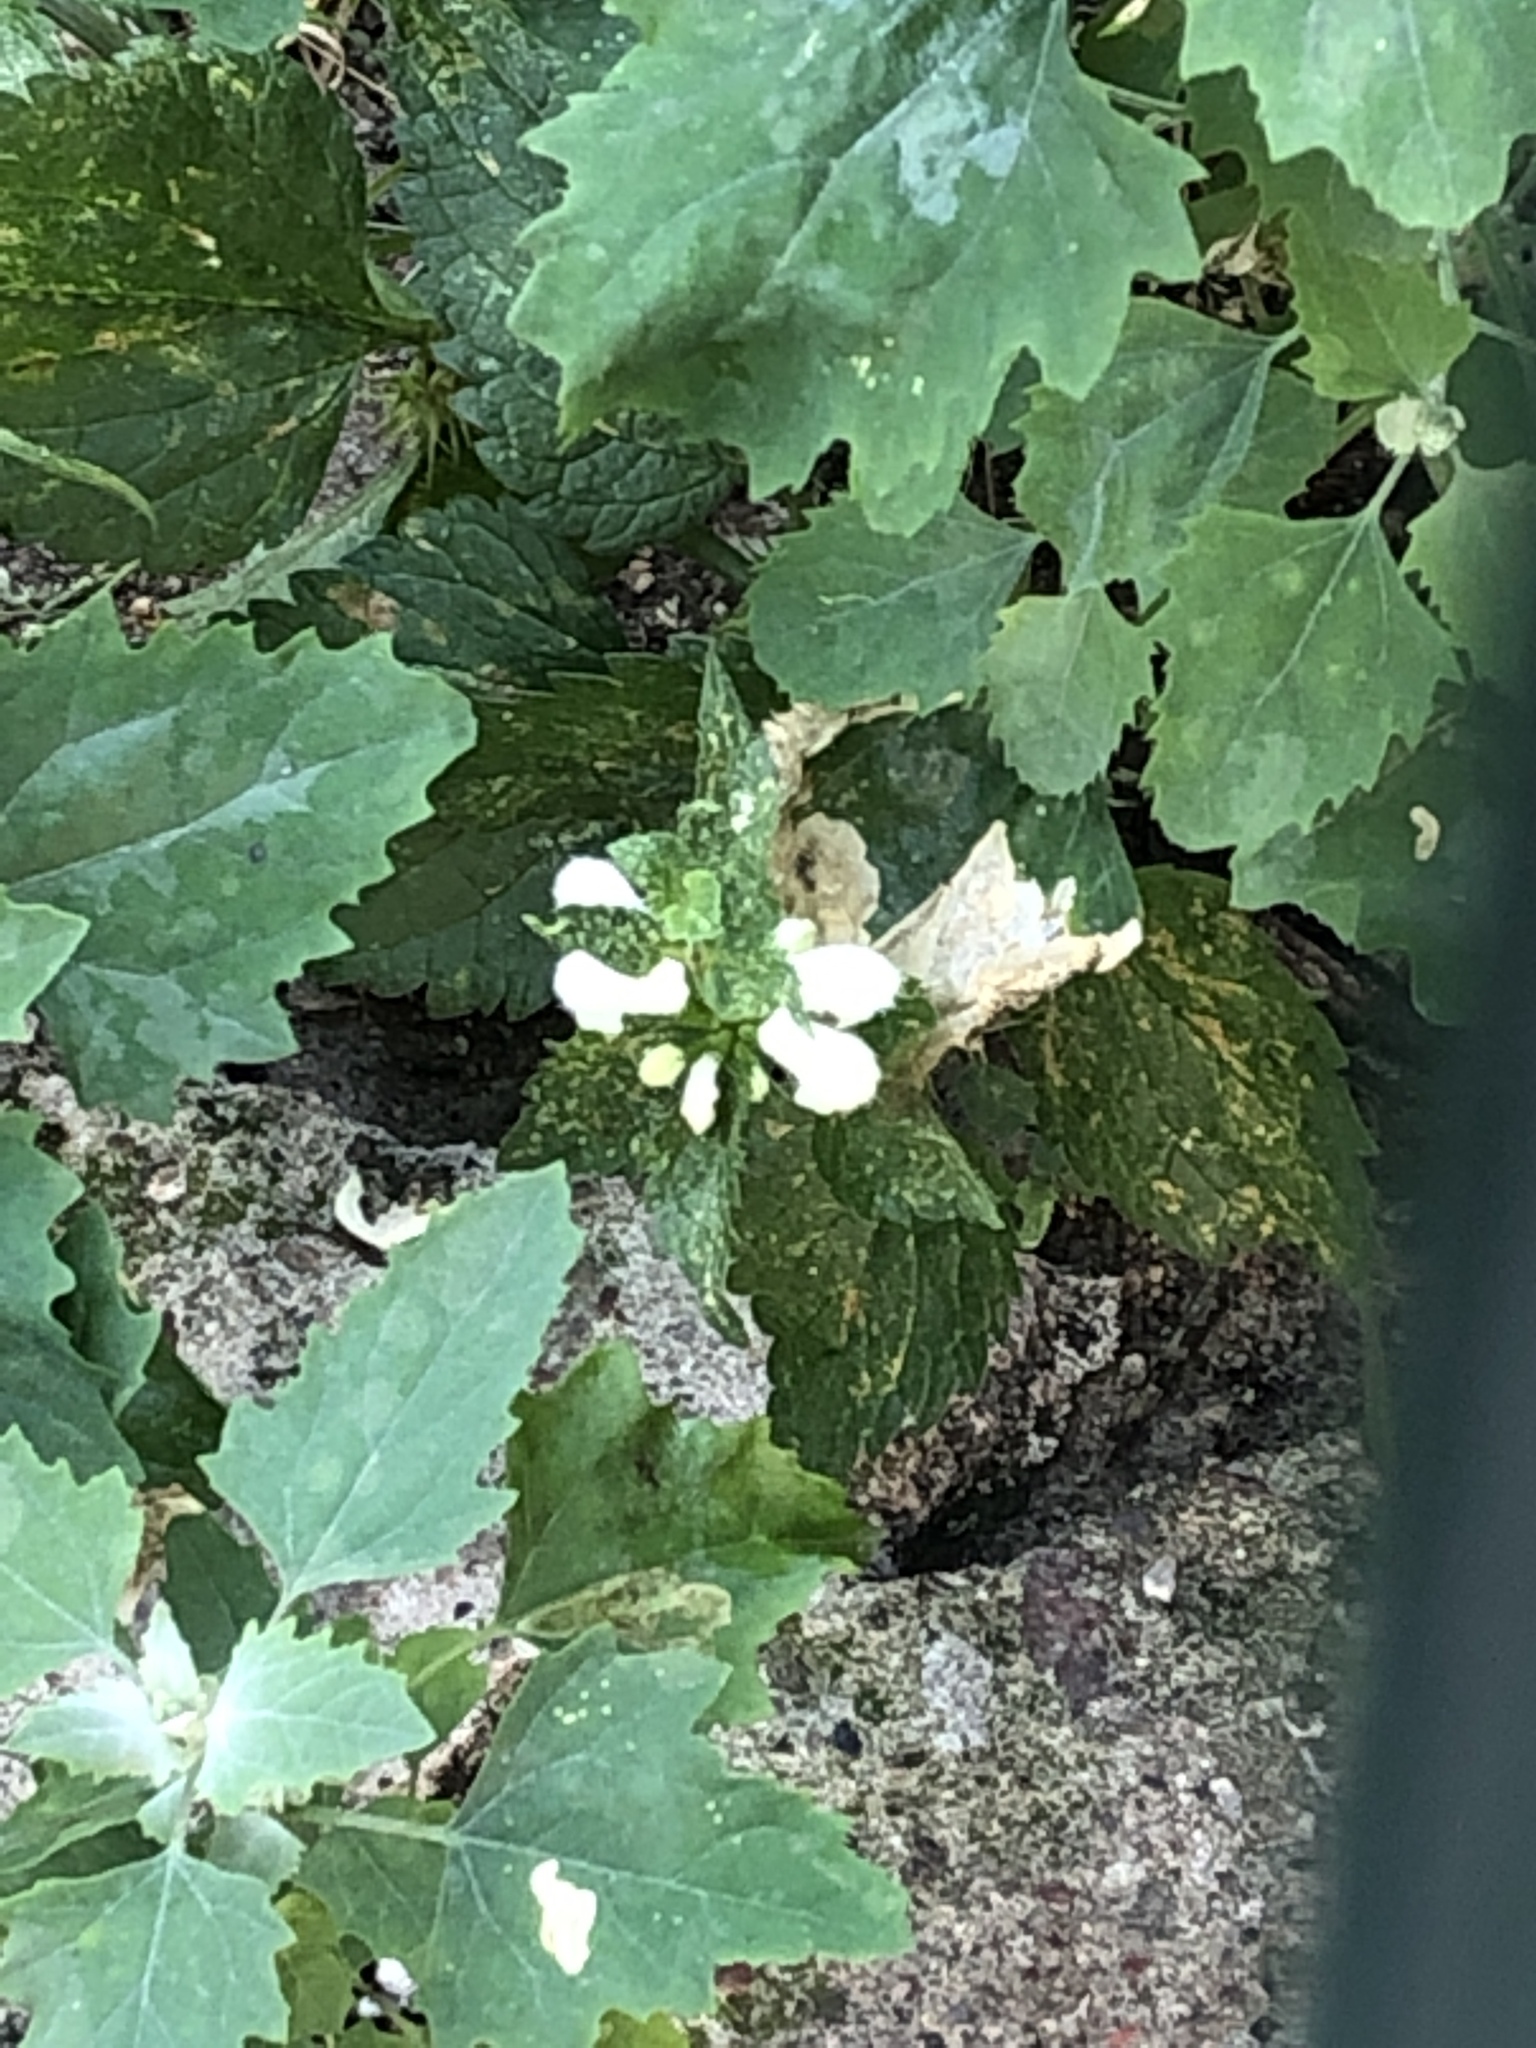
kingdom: Plantae
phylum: Tracheophyta
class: Magnoliopsida
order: Lamiales
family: Lamiaceae
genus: Lamium
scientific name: Lamium album
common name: White dead-nettle
